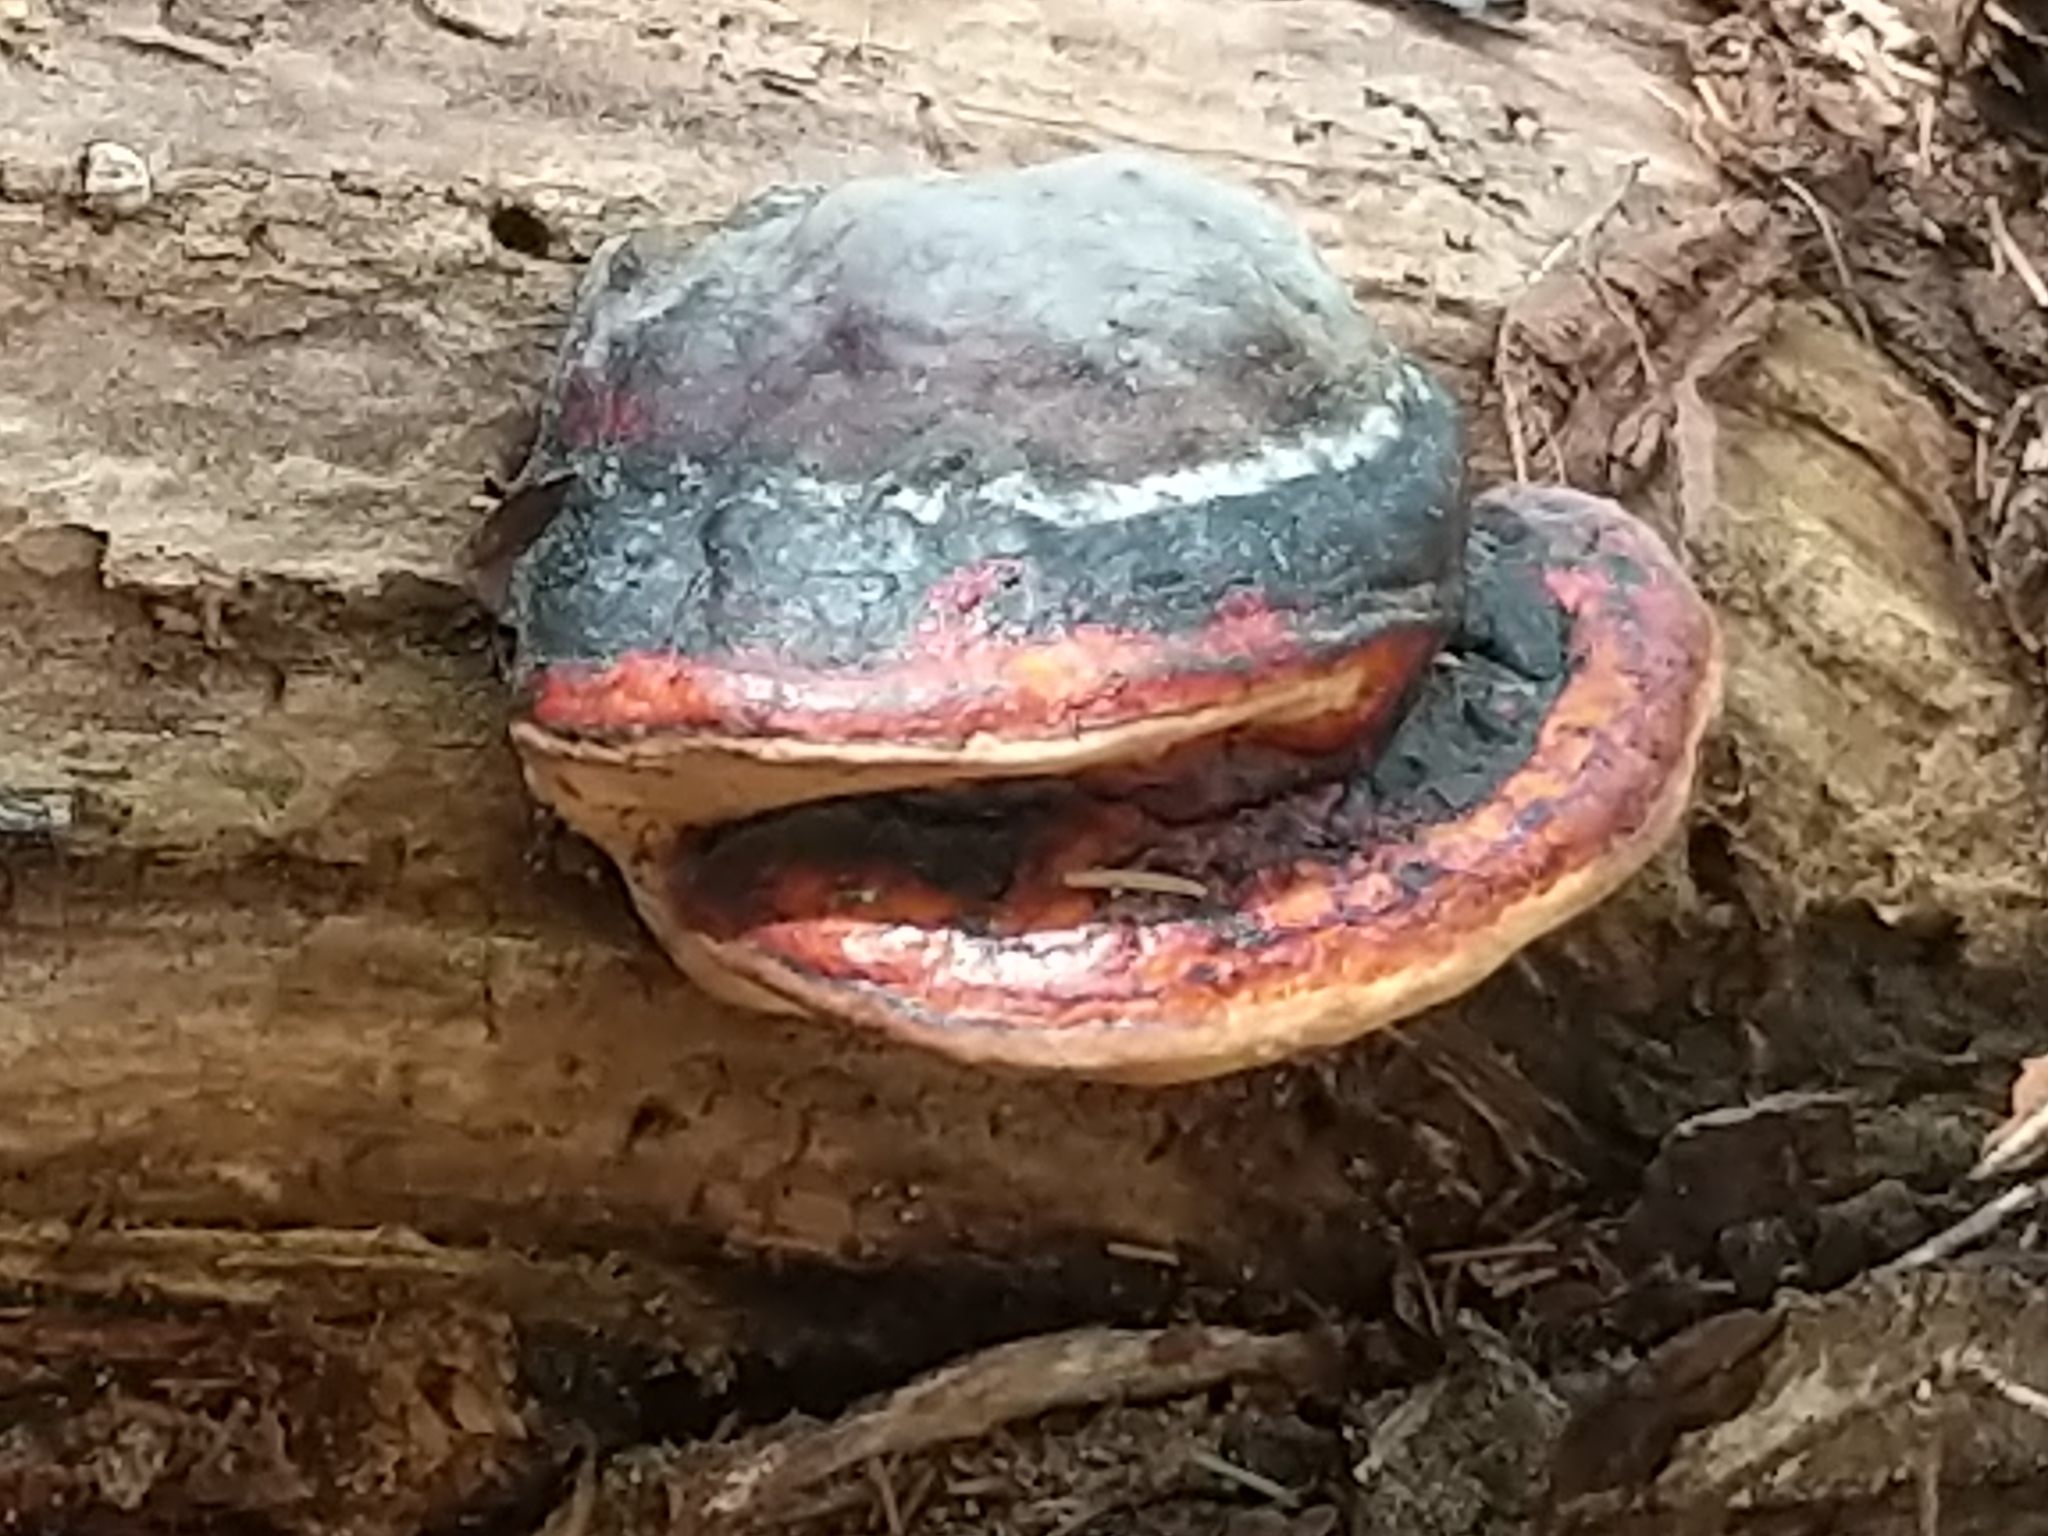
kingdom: Fungi
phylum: Basidiomycota
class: Agaricomycetes
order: Polyporales
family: Fomitopsidaceae
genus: Fomitopsis
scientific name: Fomitopsis mounceae
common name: Northern red belt
